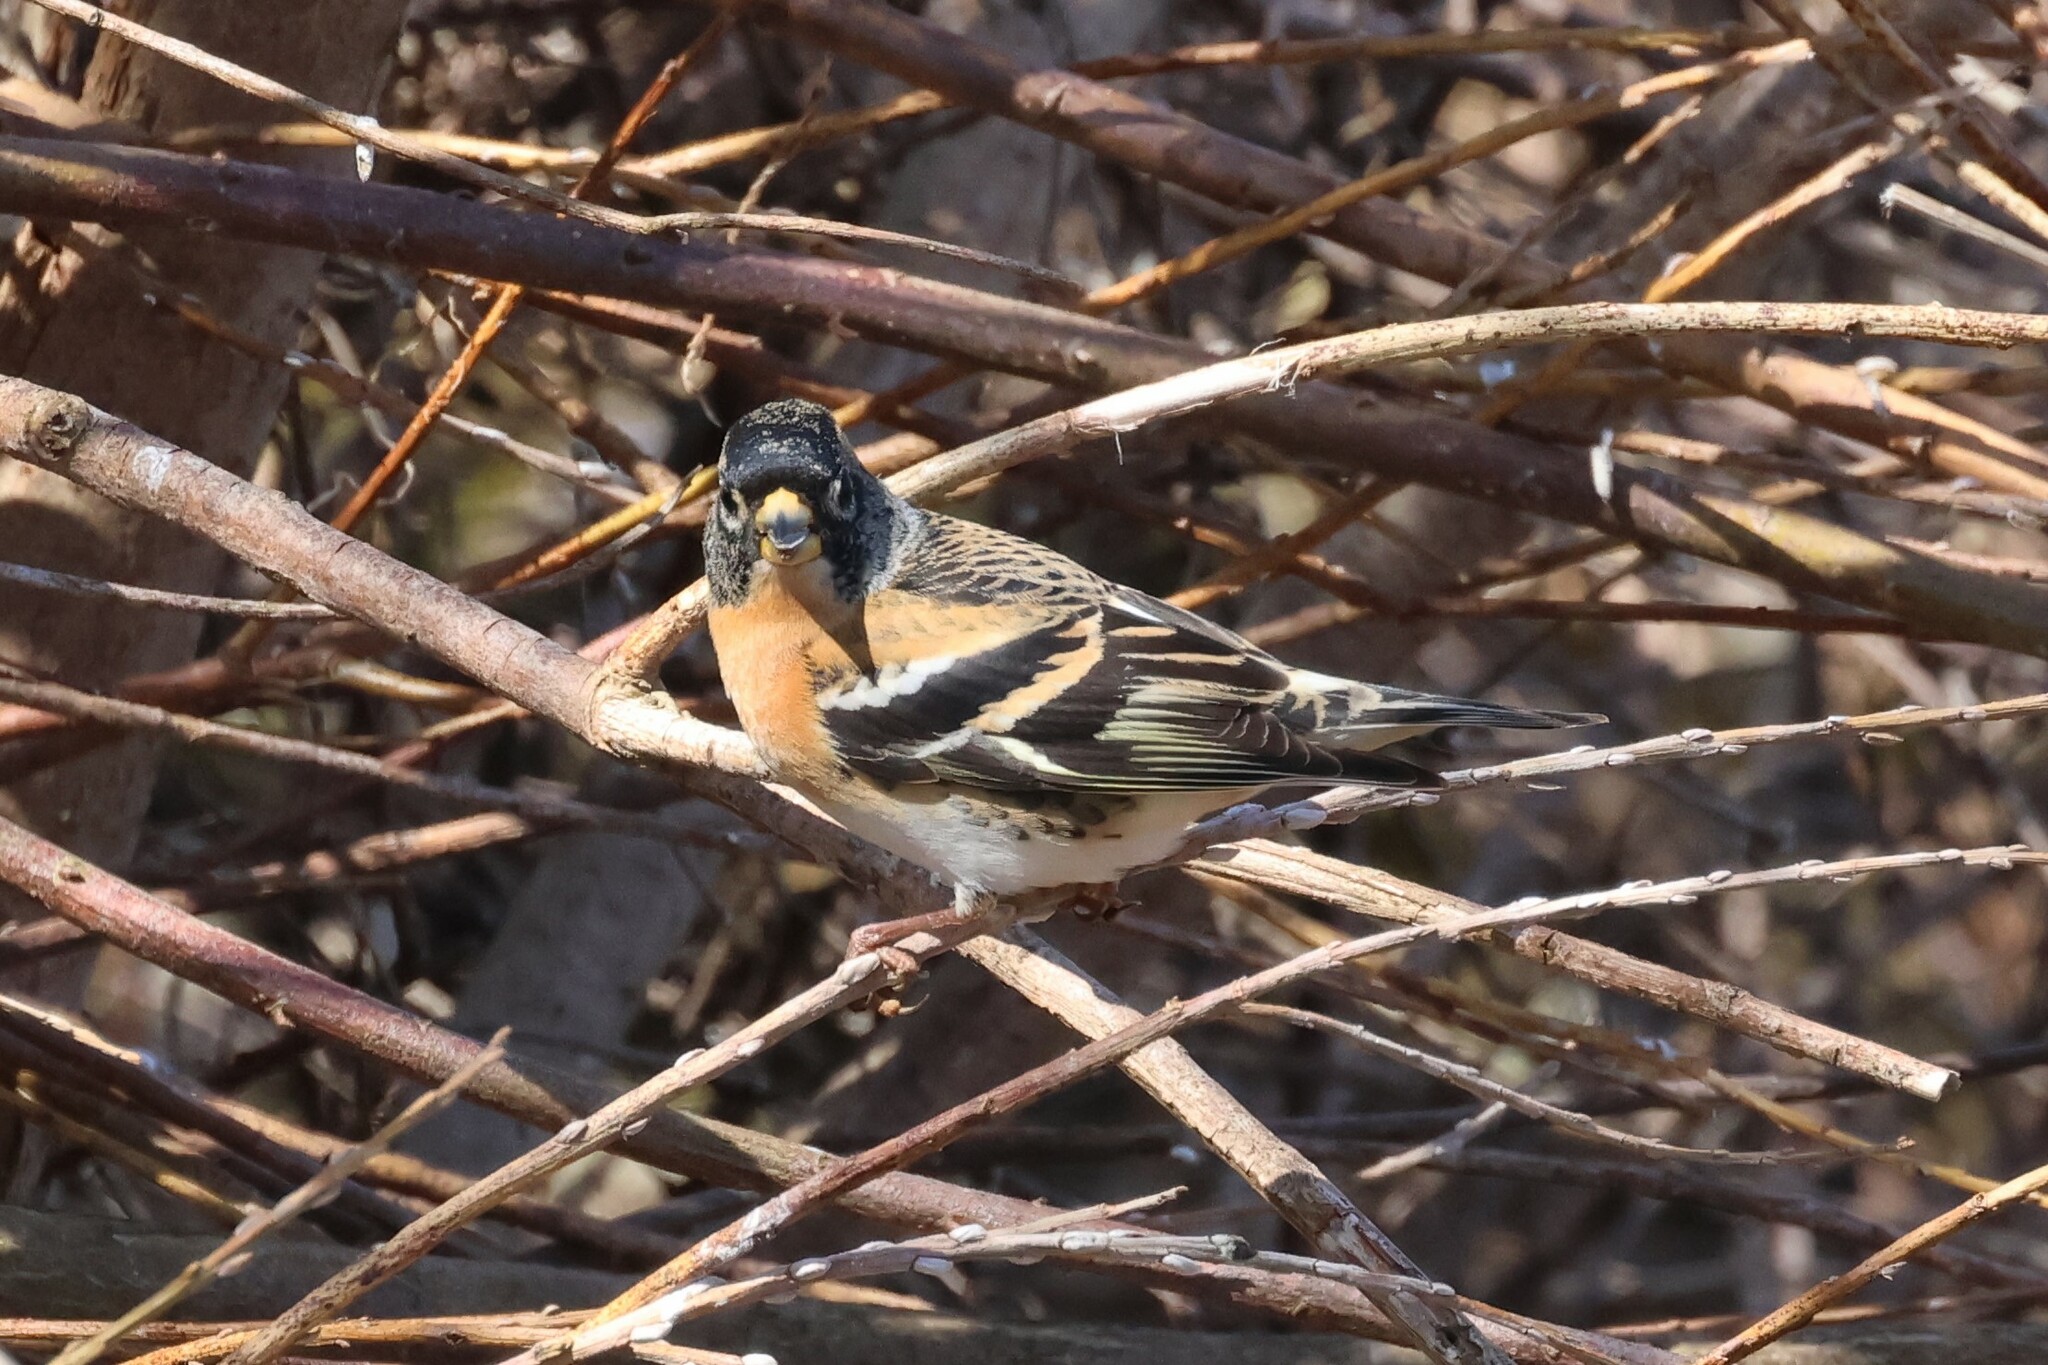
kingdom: Animalia
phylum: Chordata
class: Aves
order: Passeriformes
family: Fringillidae
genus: Fringilla
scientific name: Fringilla montifringilla
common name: Brambling
